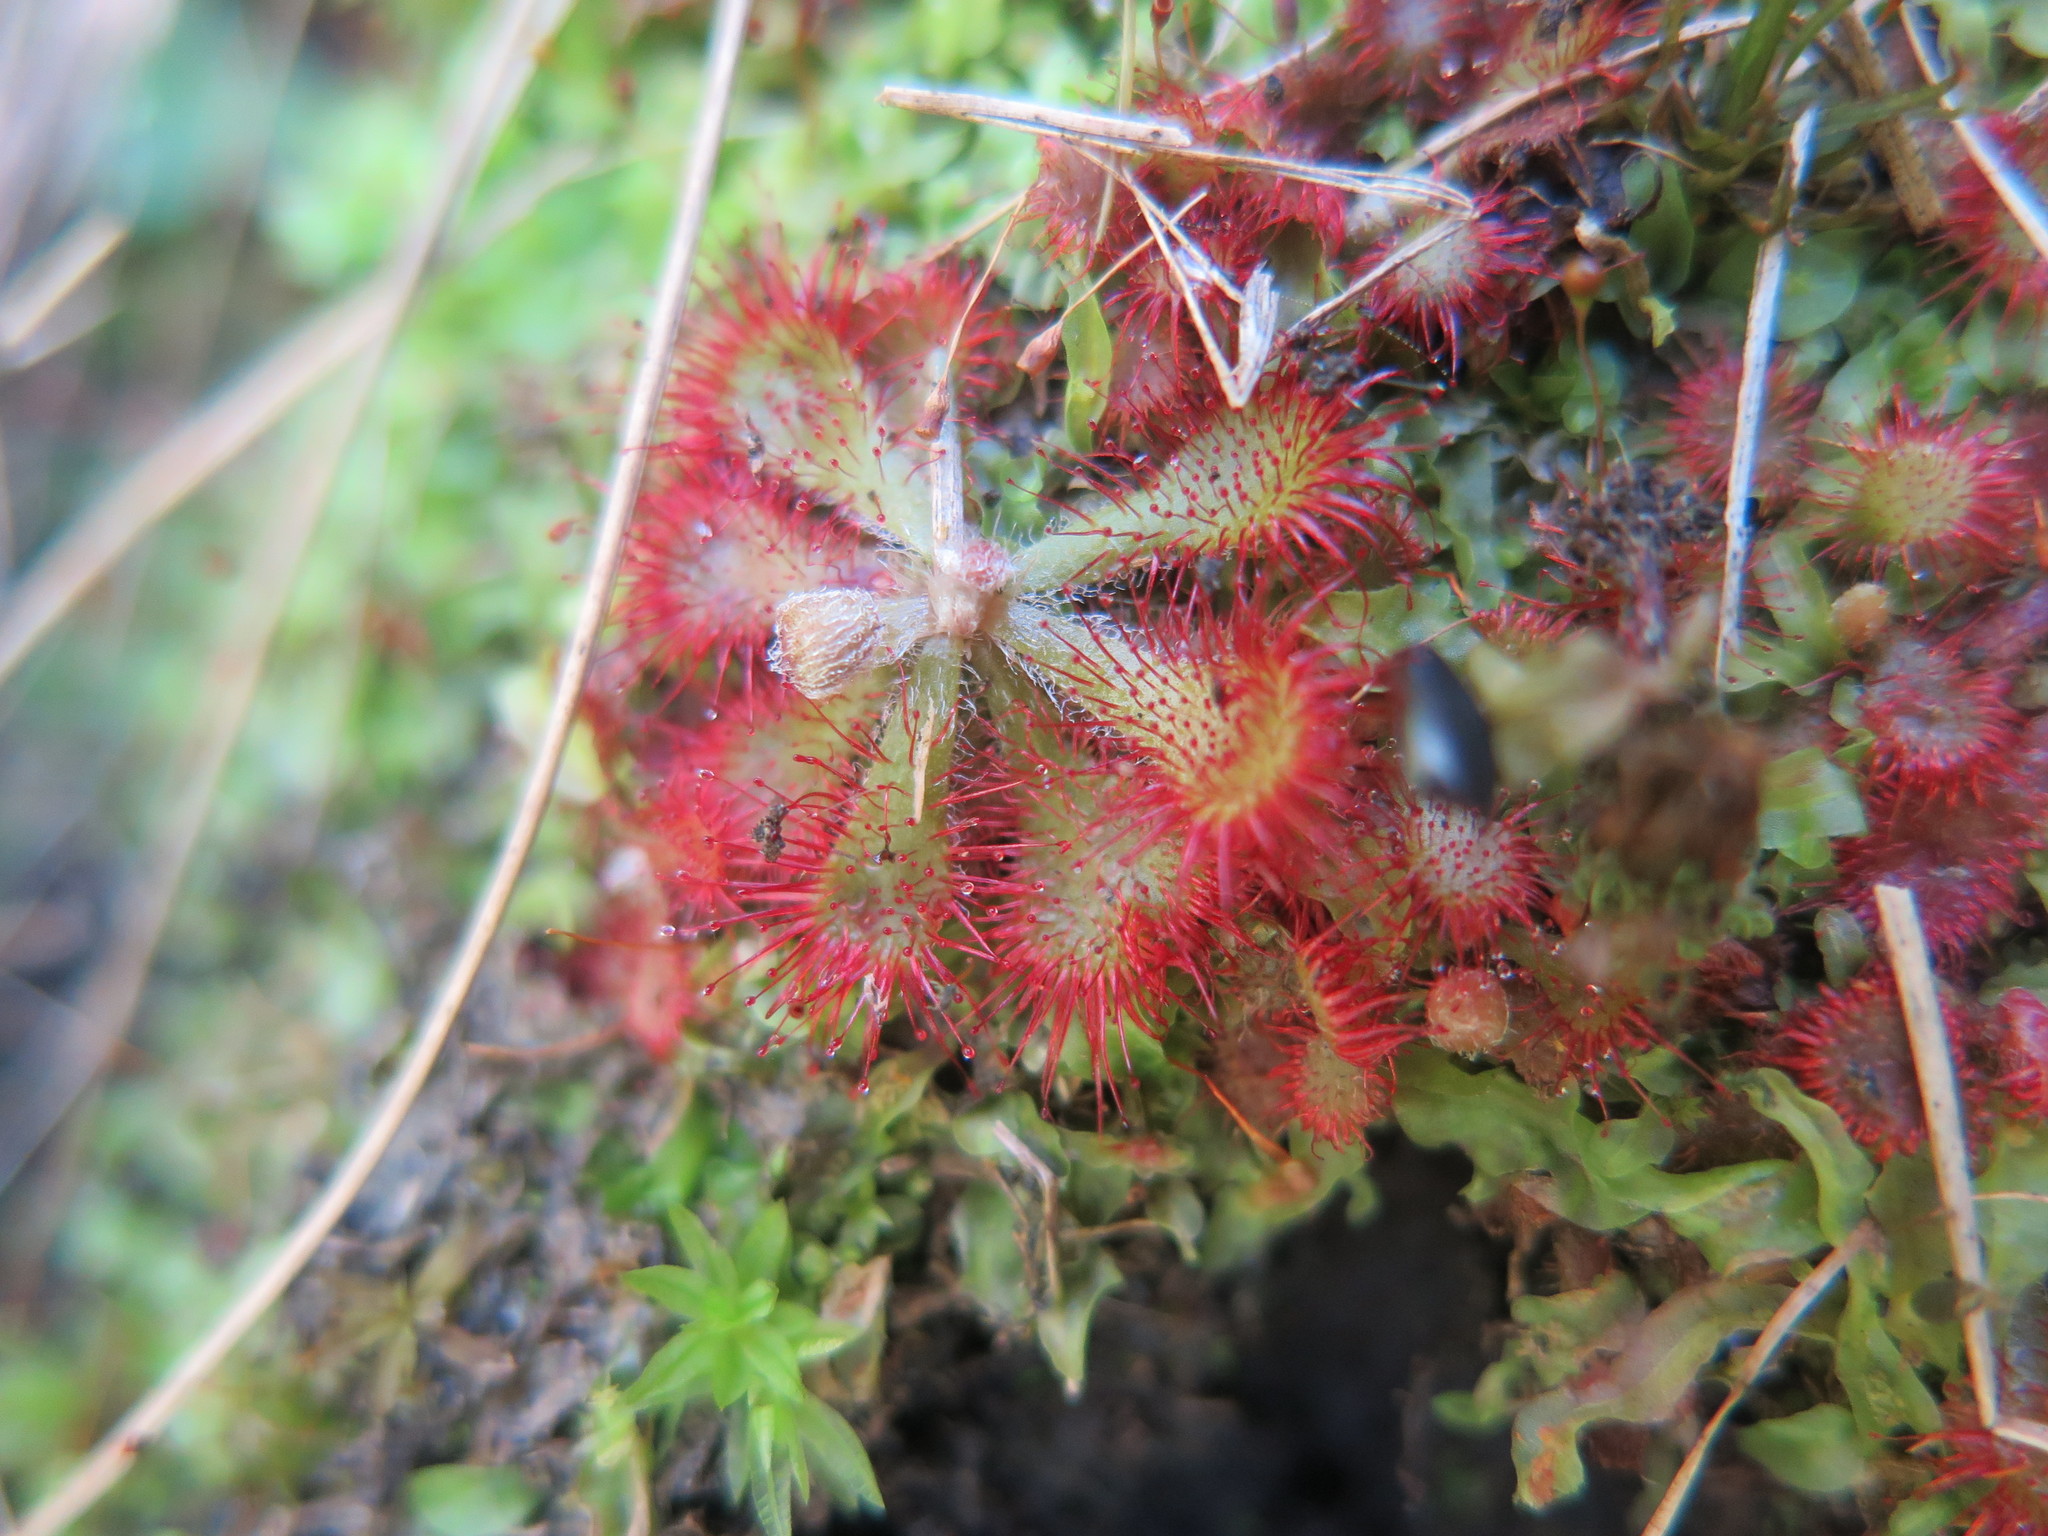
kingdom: Plantae
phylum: Tracheophyta
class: Magnoliopsida
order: Caryophyllales
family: Droseraceae
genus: Drosera
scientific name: Drosera natalensis
